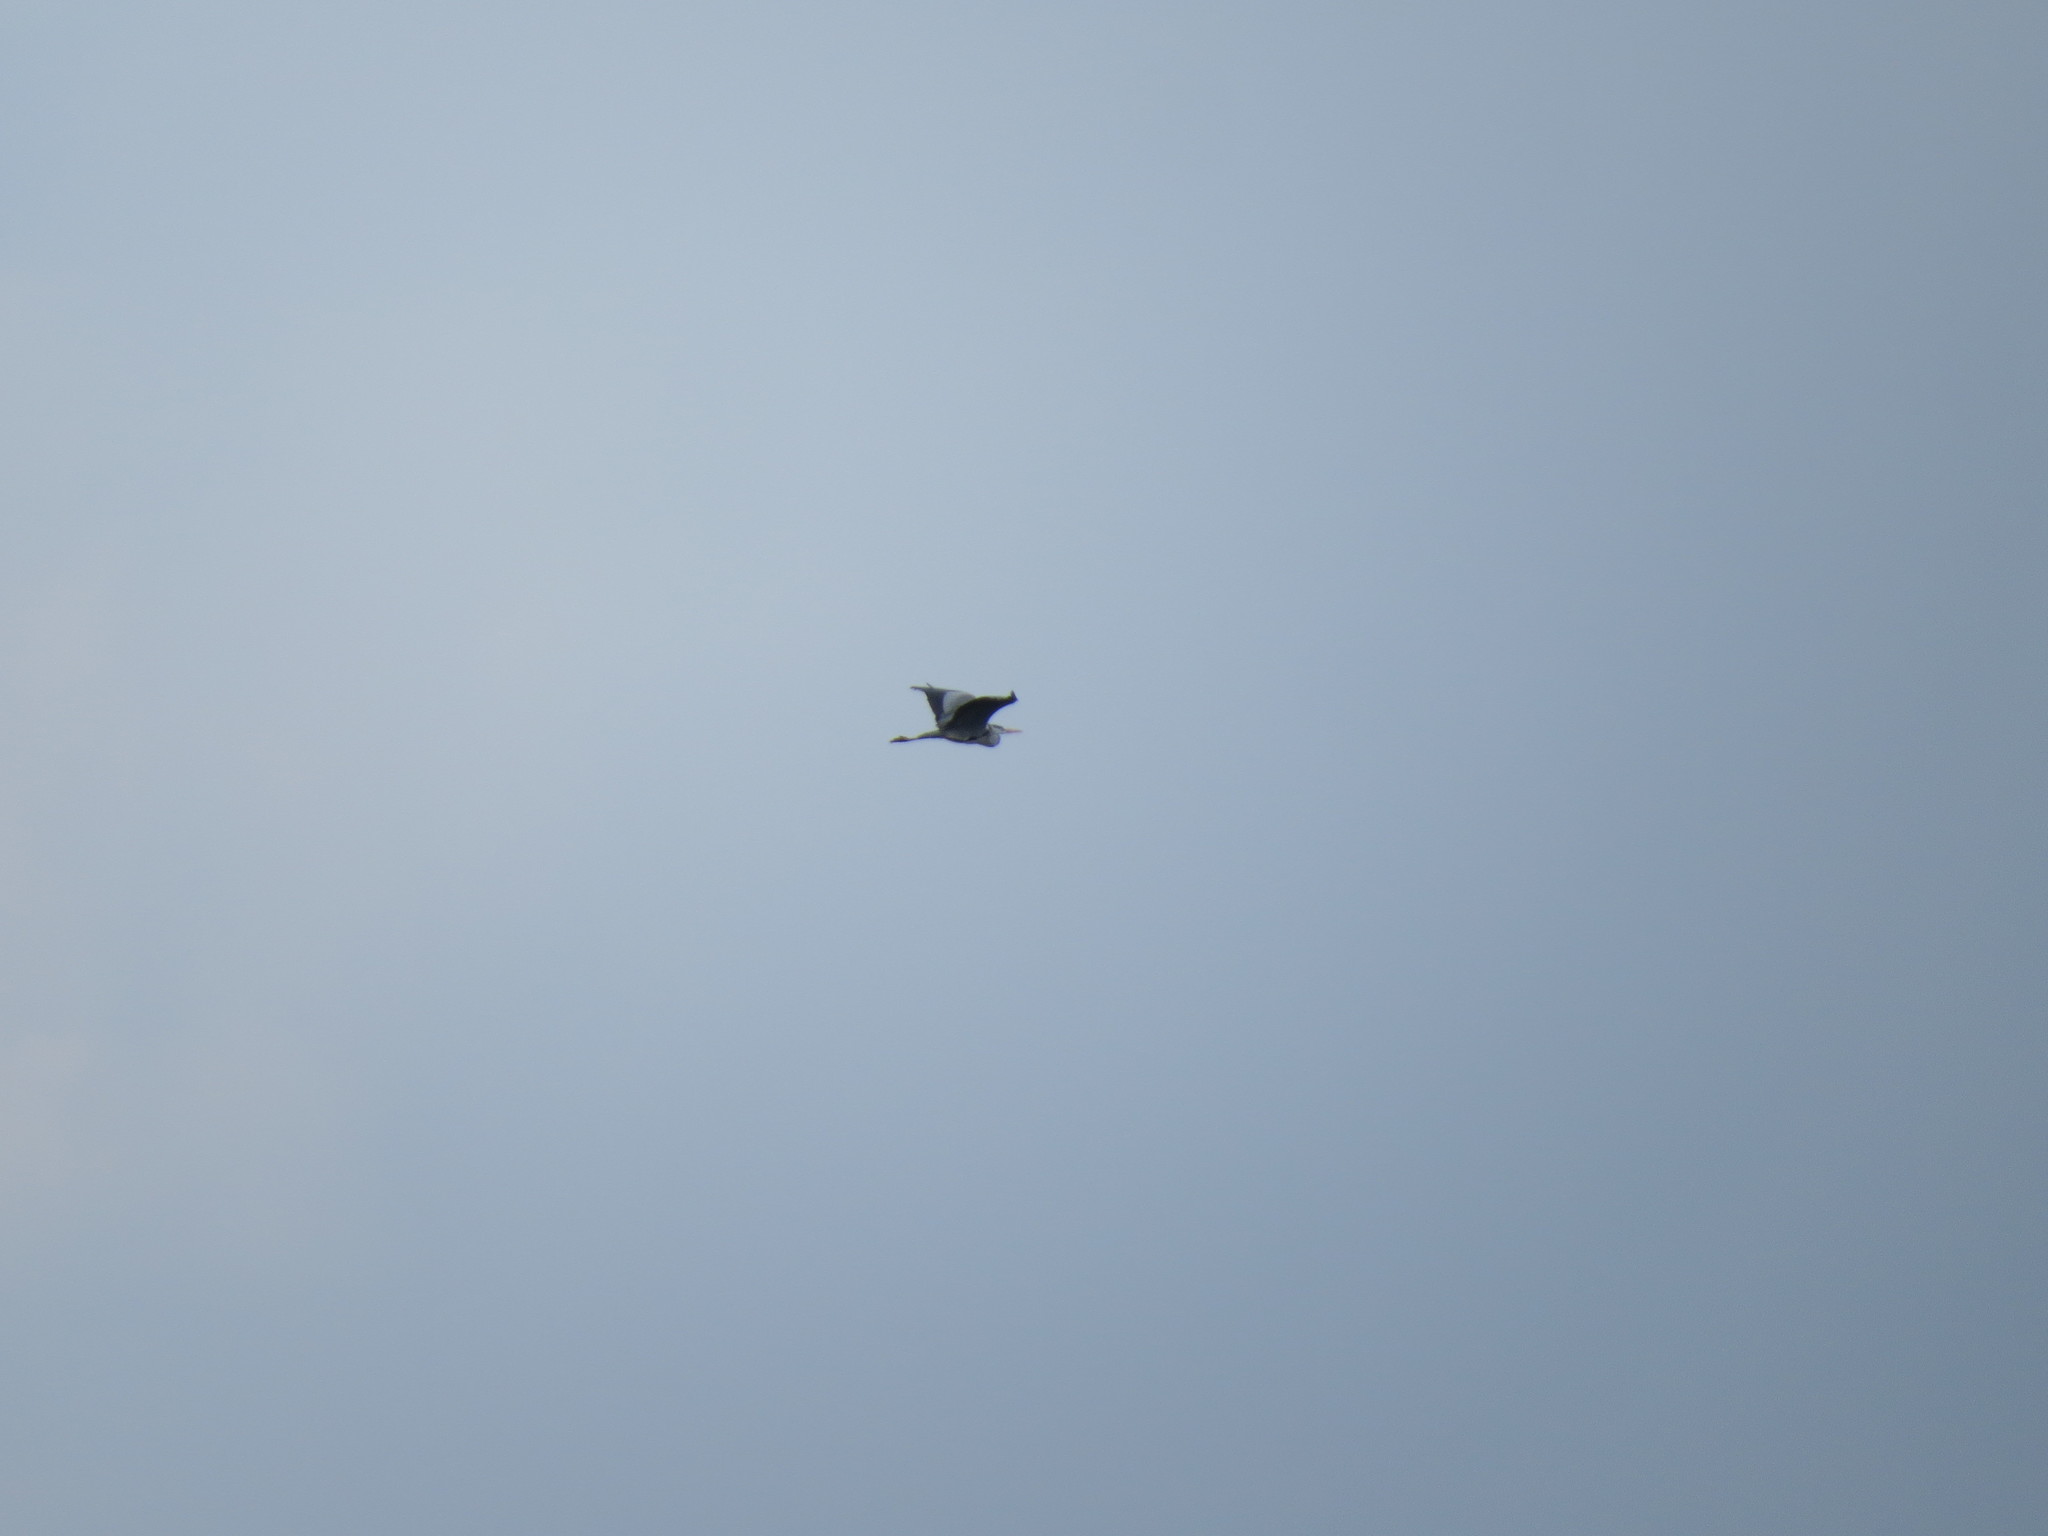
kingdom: Animalia
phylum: Chordata
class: Aves
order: Pelecaniformes
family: Ardeidae
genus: Ardea
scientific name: Ardea cinerea
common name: Grey heron
